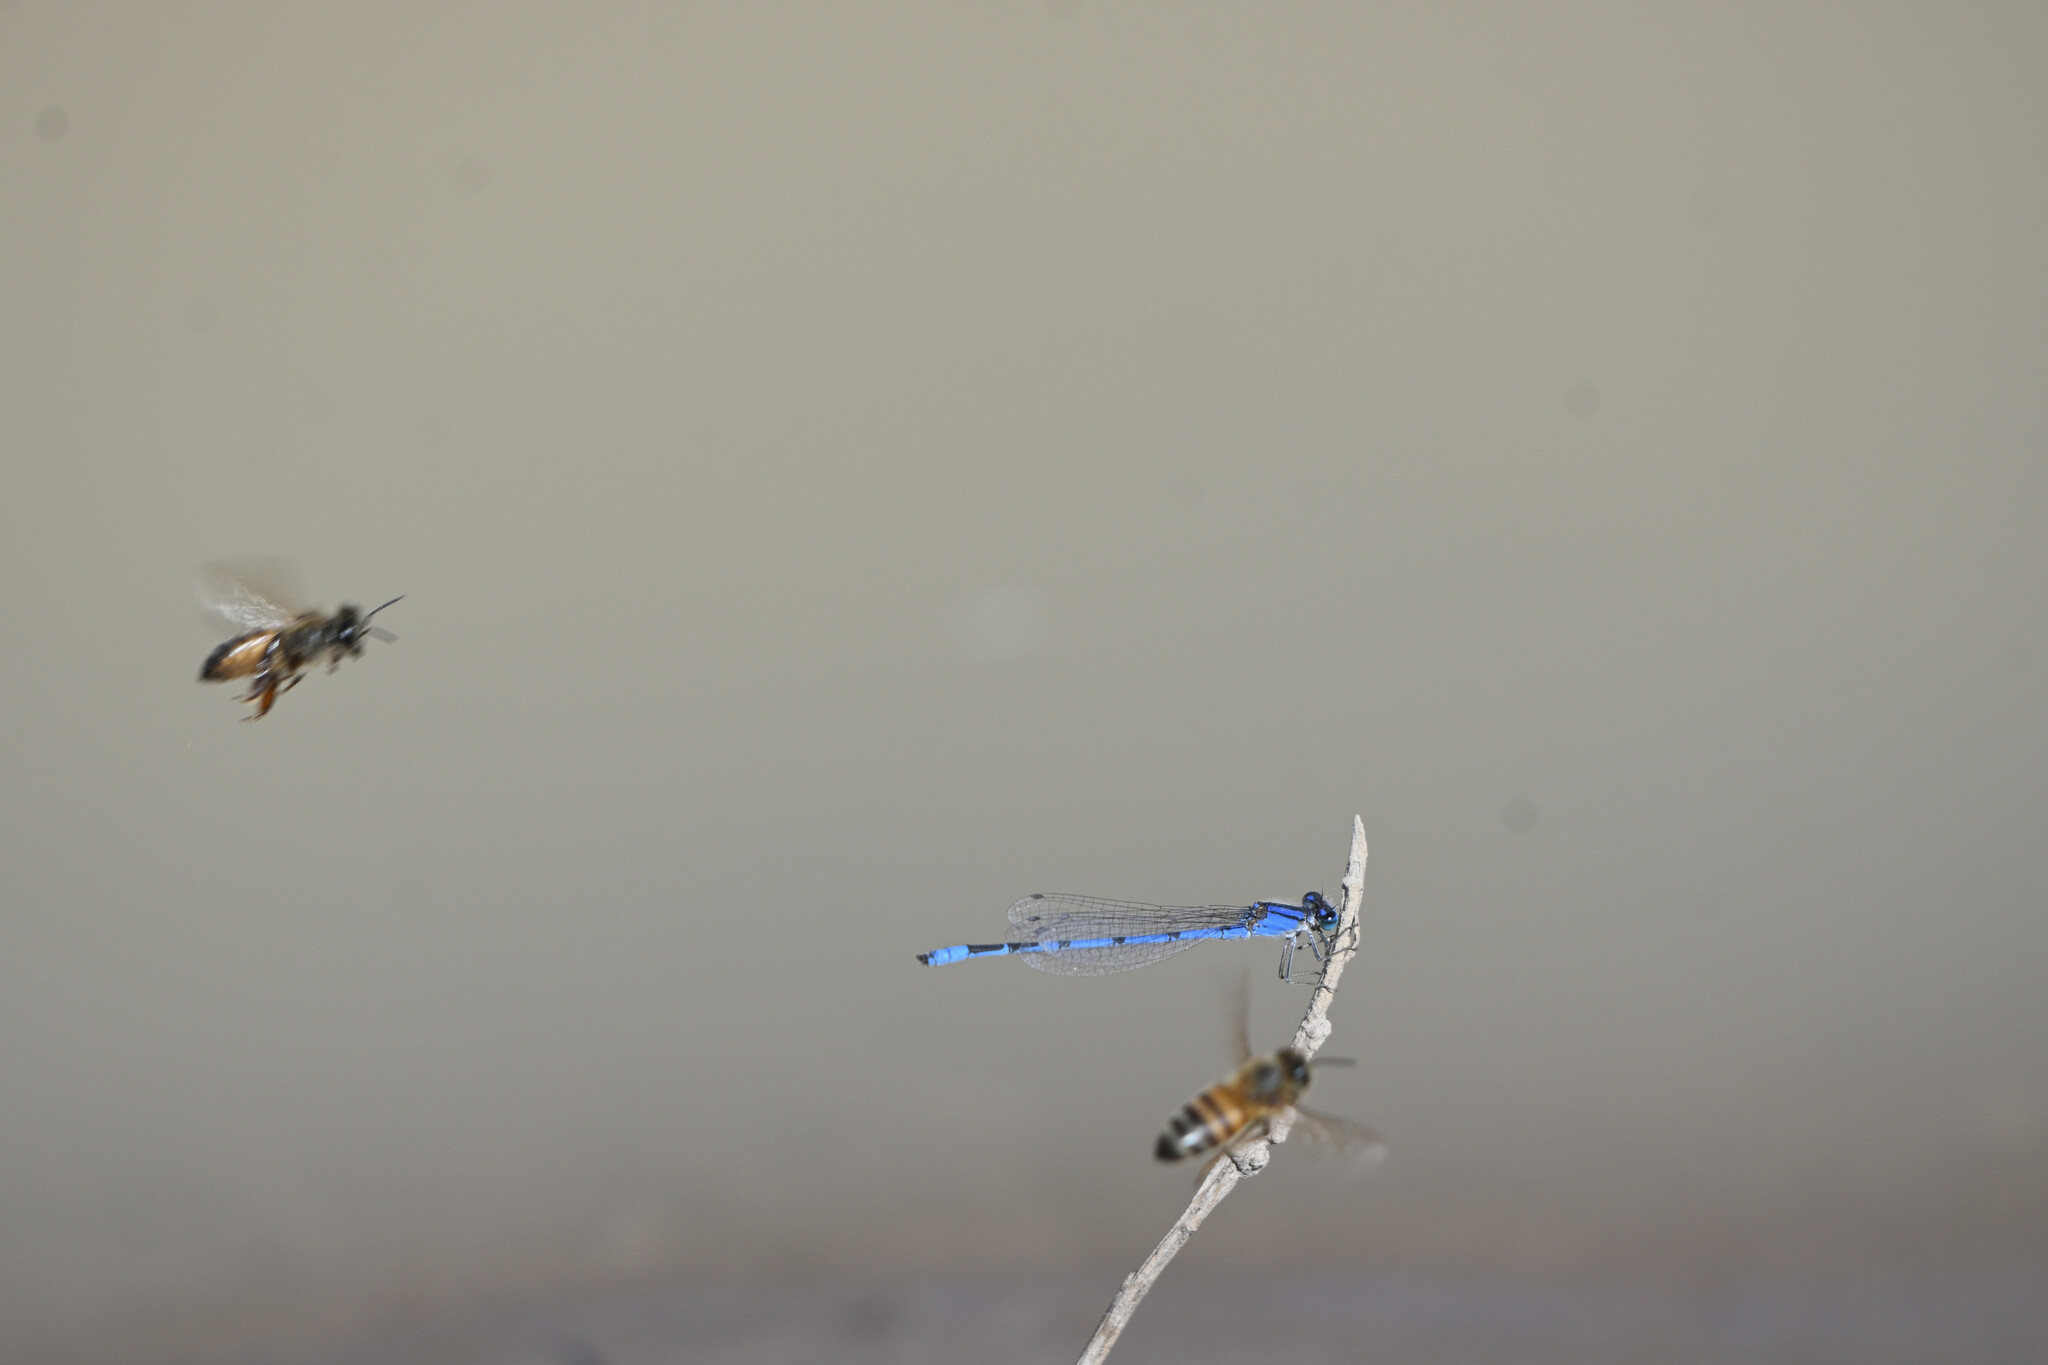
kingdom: Animalia
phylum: Arthropoda
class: Insecta
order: Hymenoptera
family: Apidae
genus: Apis
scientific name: Apis mellifera
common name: Honey bee
